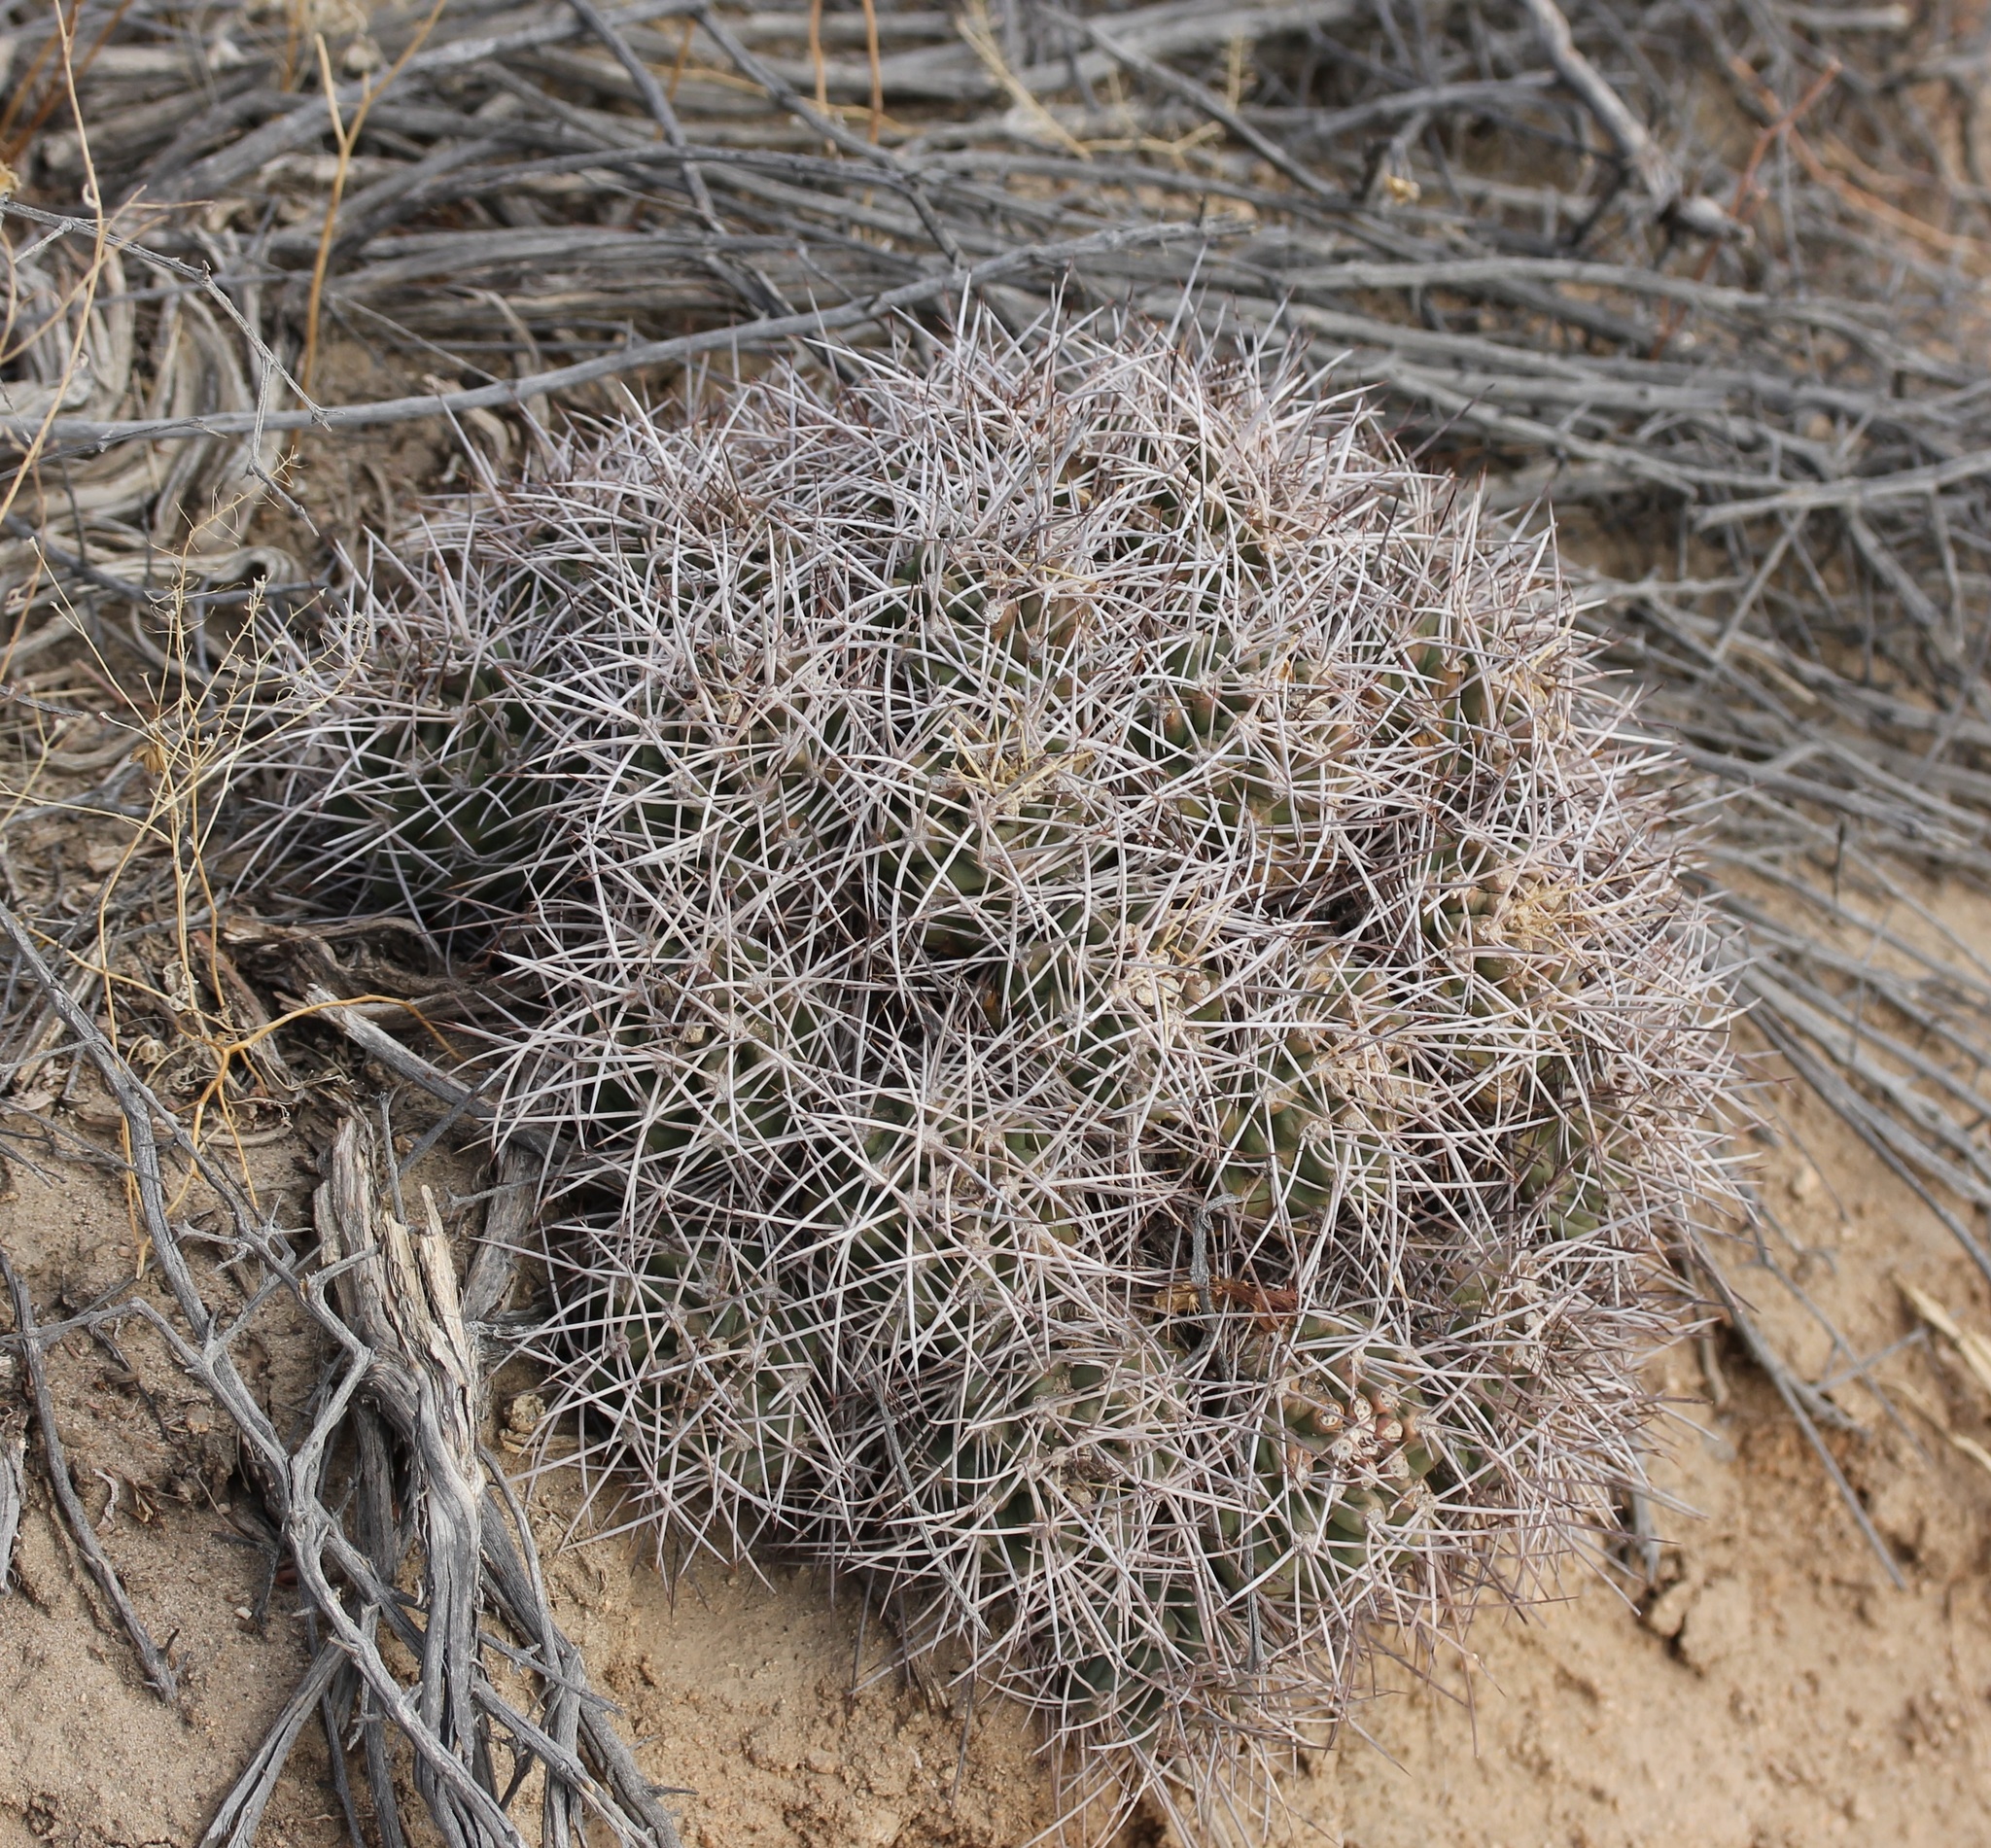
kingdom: Plantae
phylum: Tracheophyta
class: Magnoliopsida
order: Caryophyllales
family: Cactaceae
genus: Echinocereus
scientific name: Echinocereus triglochidiatus
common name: Claretcup hedgehog
